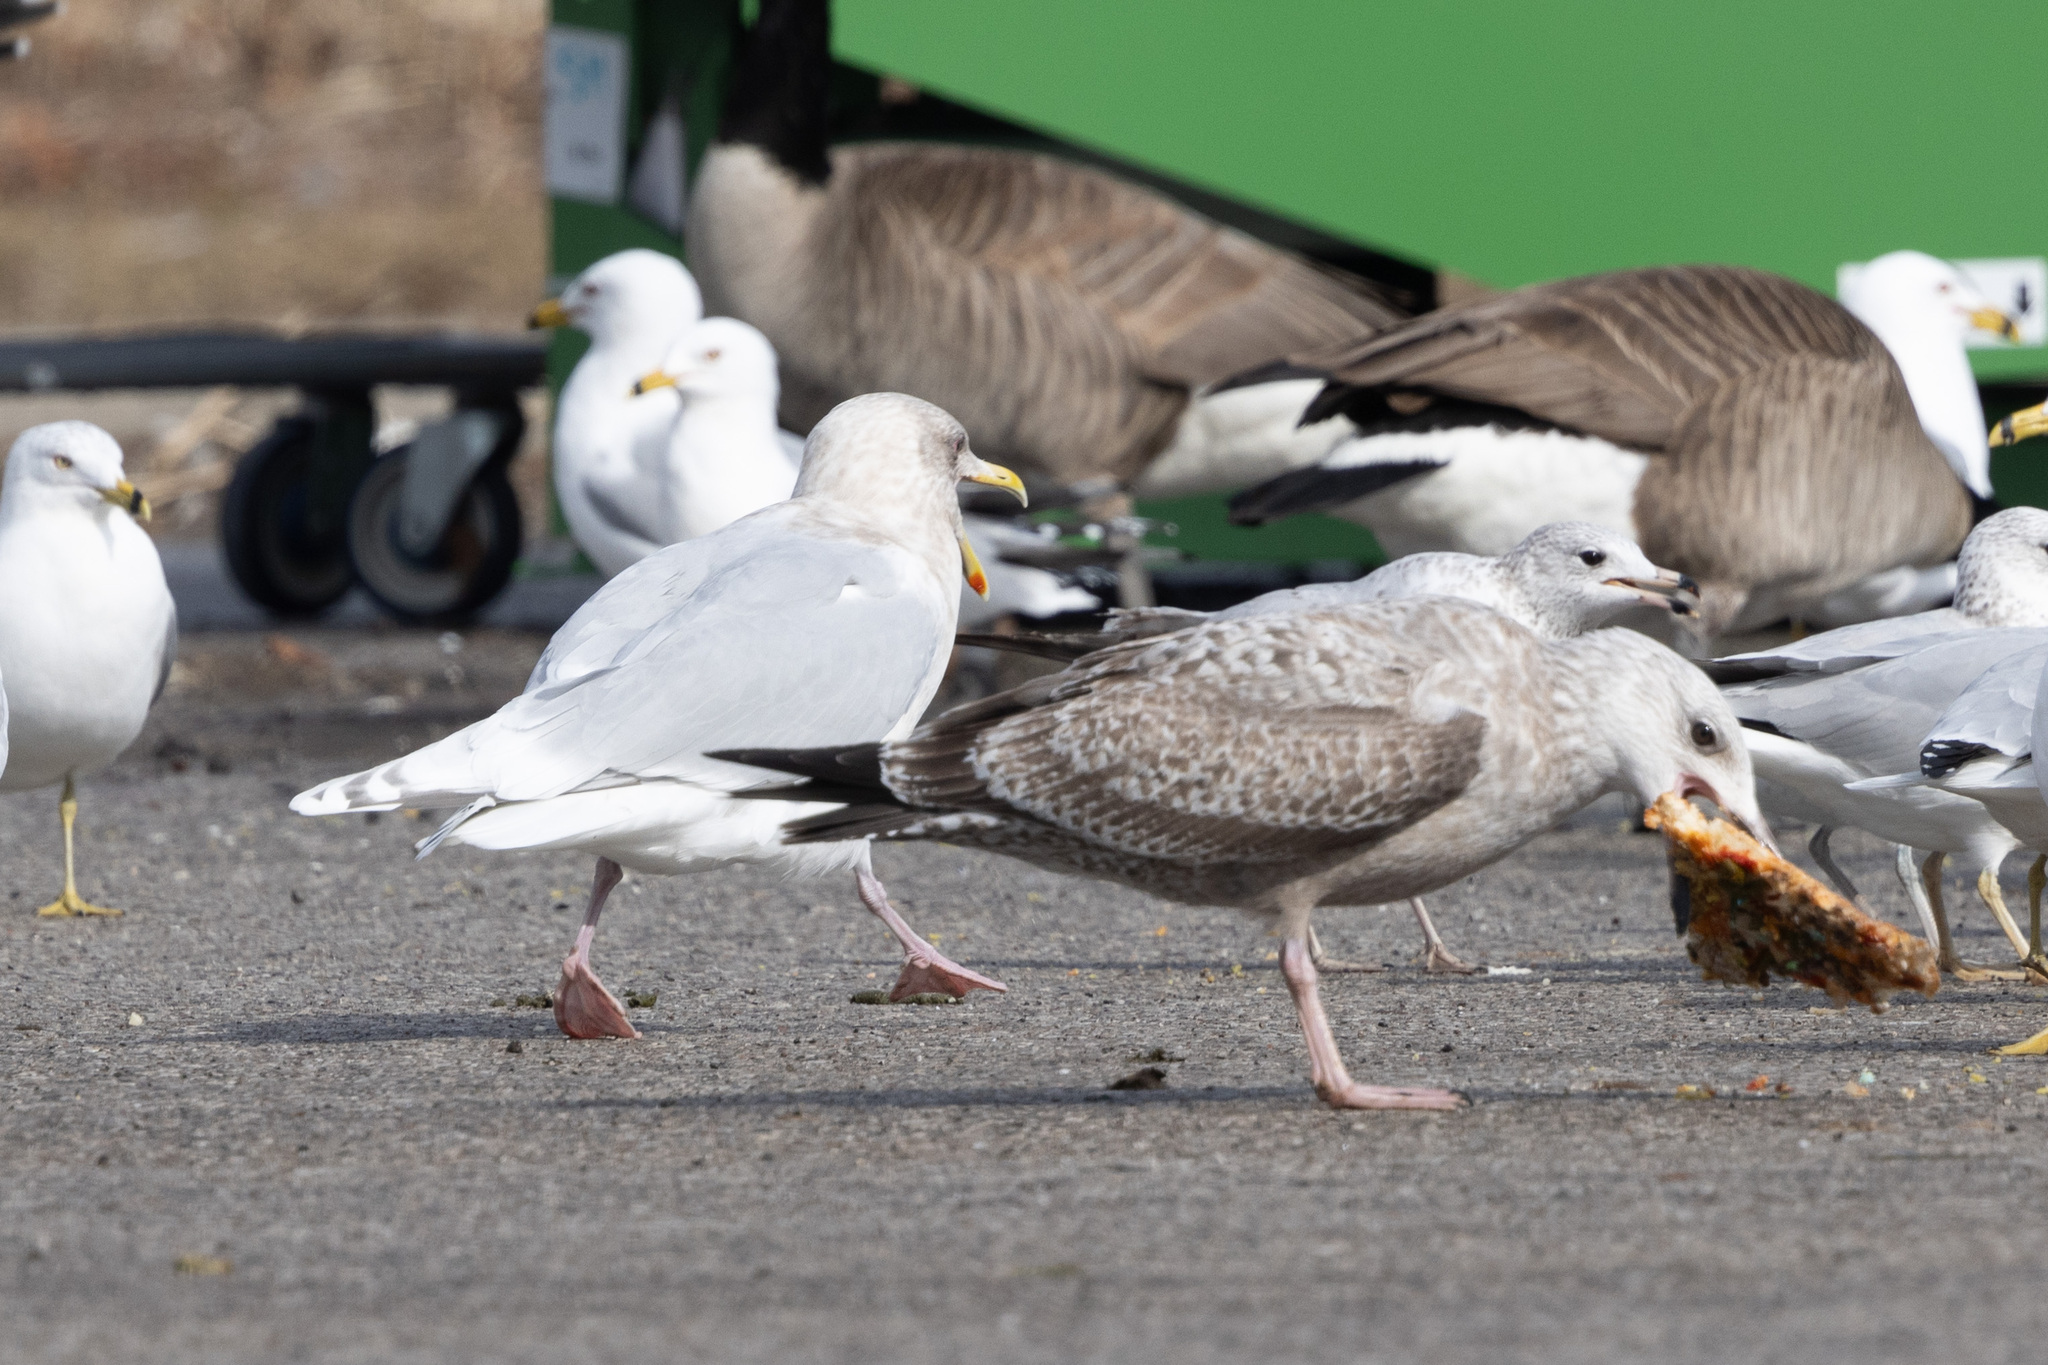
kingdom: Animalia
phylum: Chordata
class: Aves
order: Charadriiformes
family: Laridae
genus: Larus
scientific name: Larus glaucoides
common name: Iceland gull
